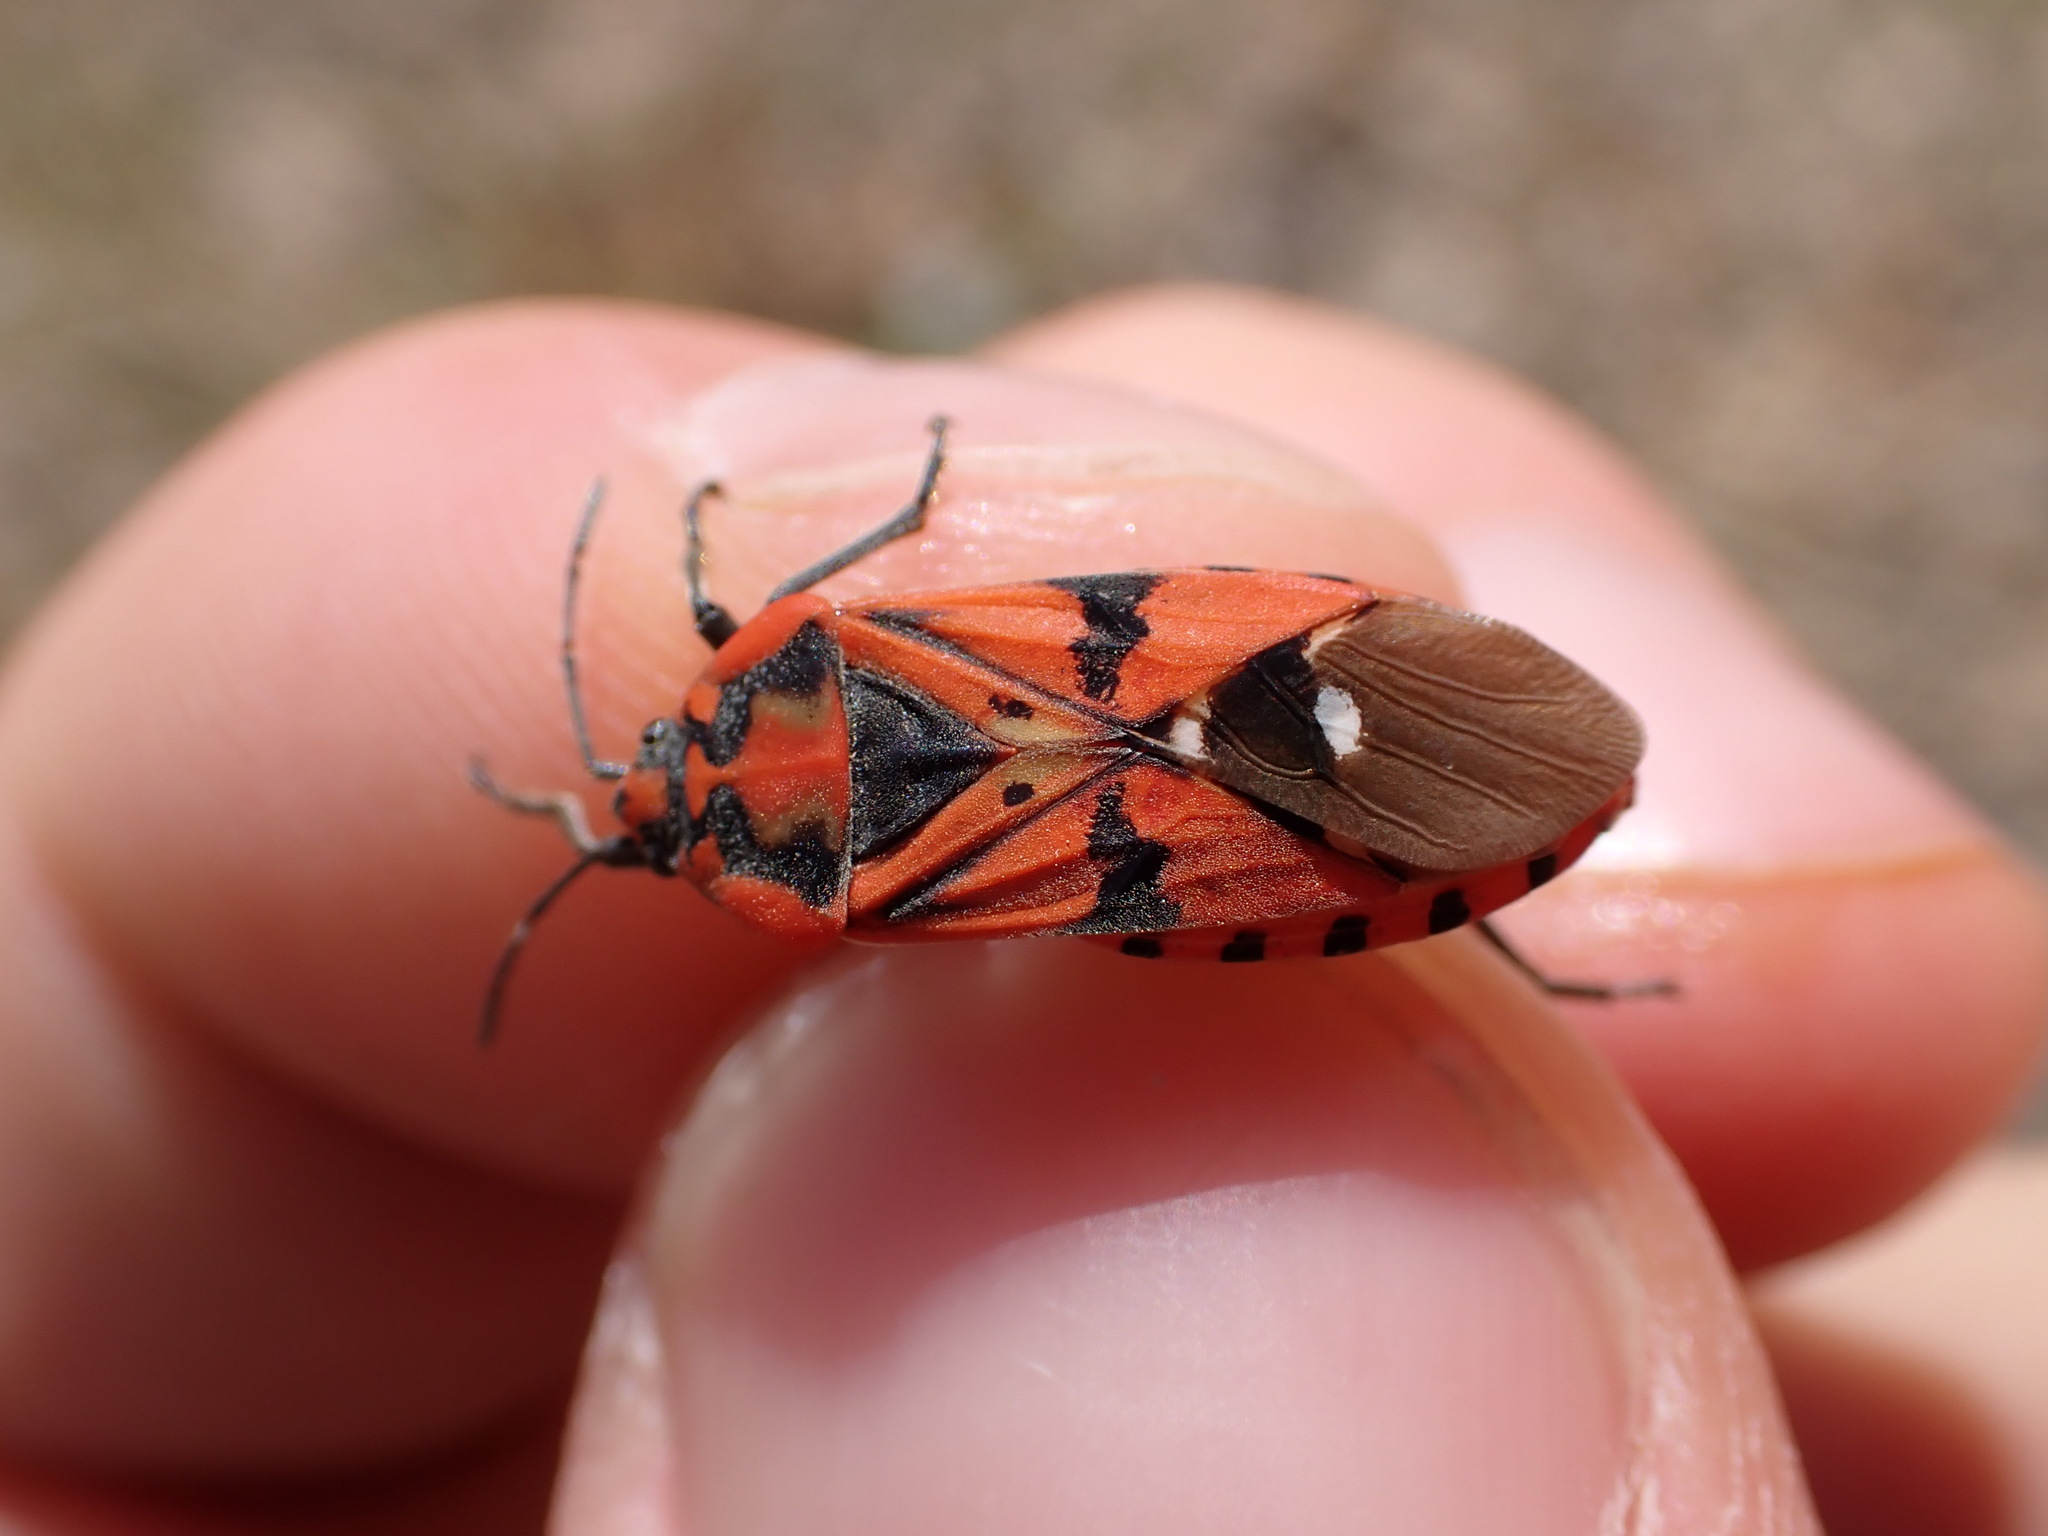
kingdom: Animalia
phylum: Arthropoda
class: Insecta
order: Hemiptera
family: Lygaeidae
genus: Spilostethus
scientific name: Spilostethus pandurus
